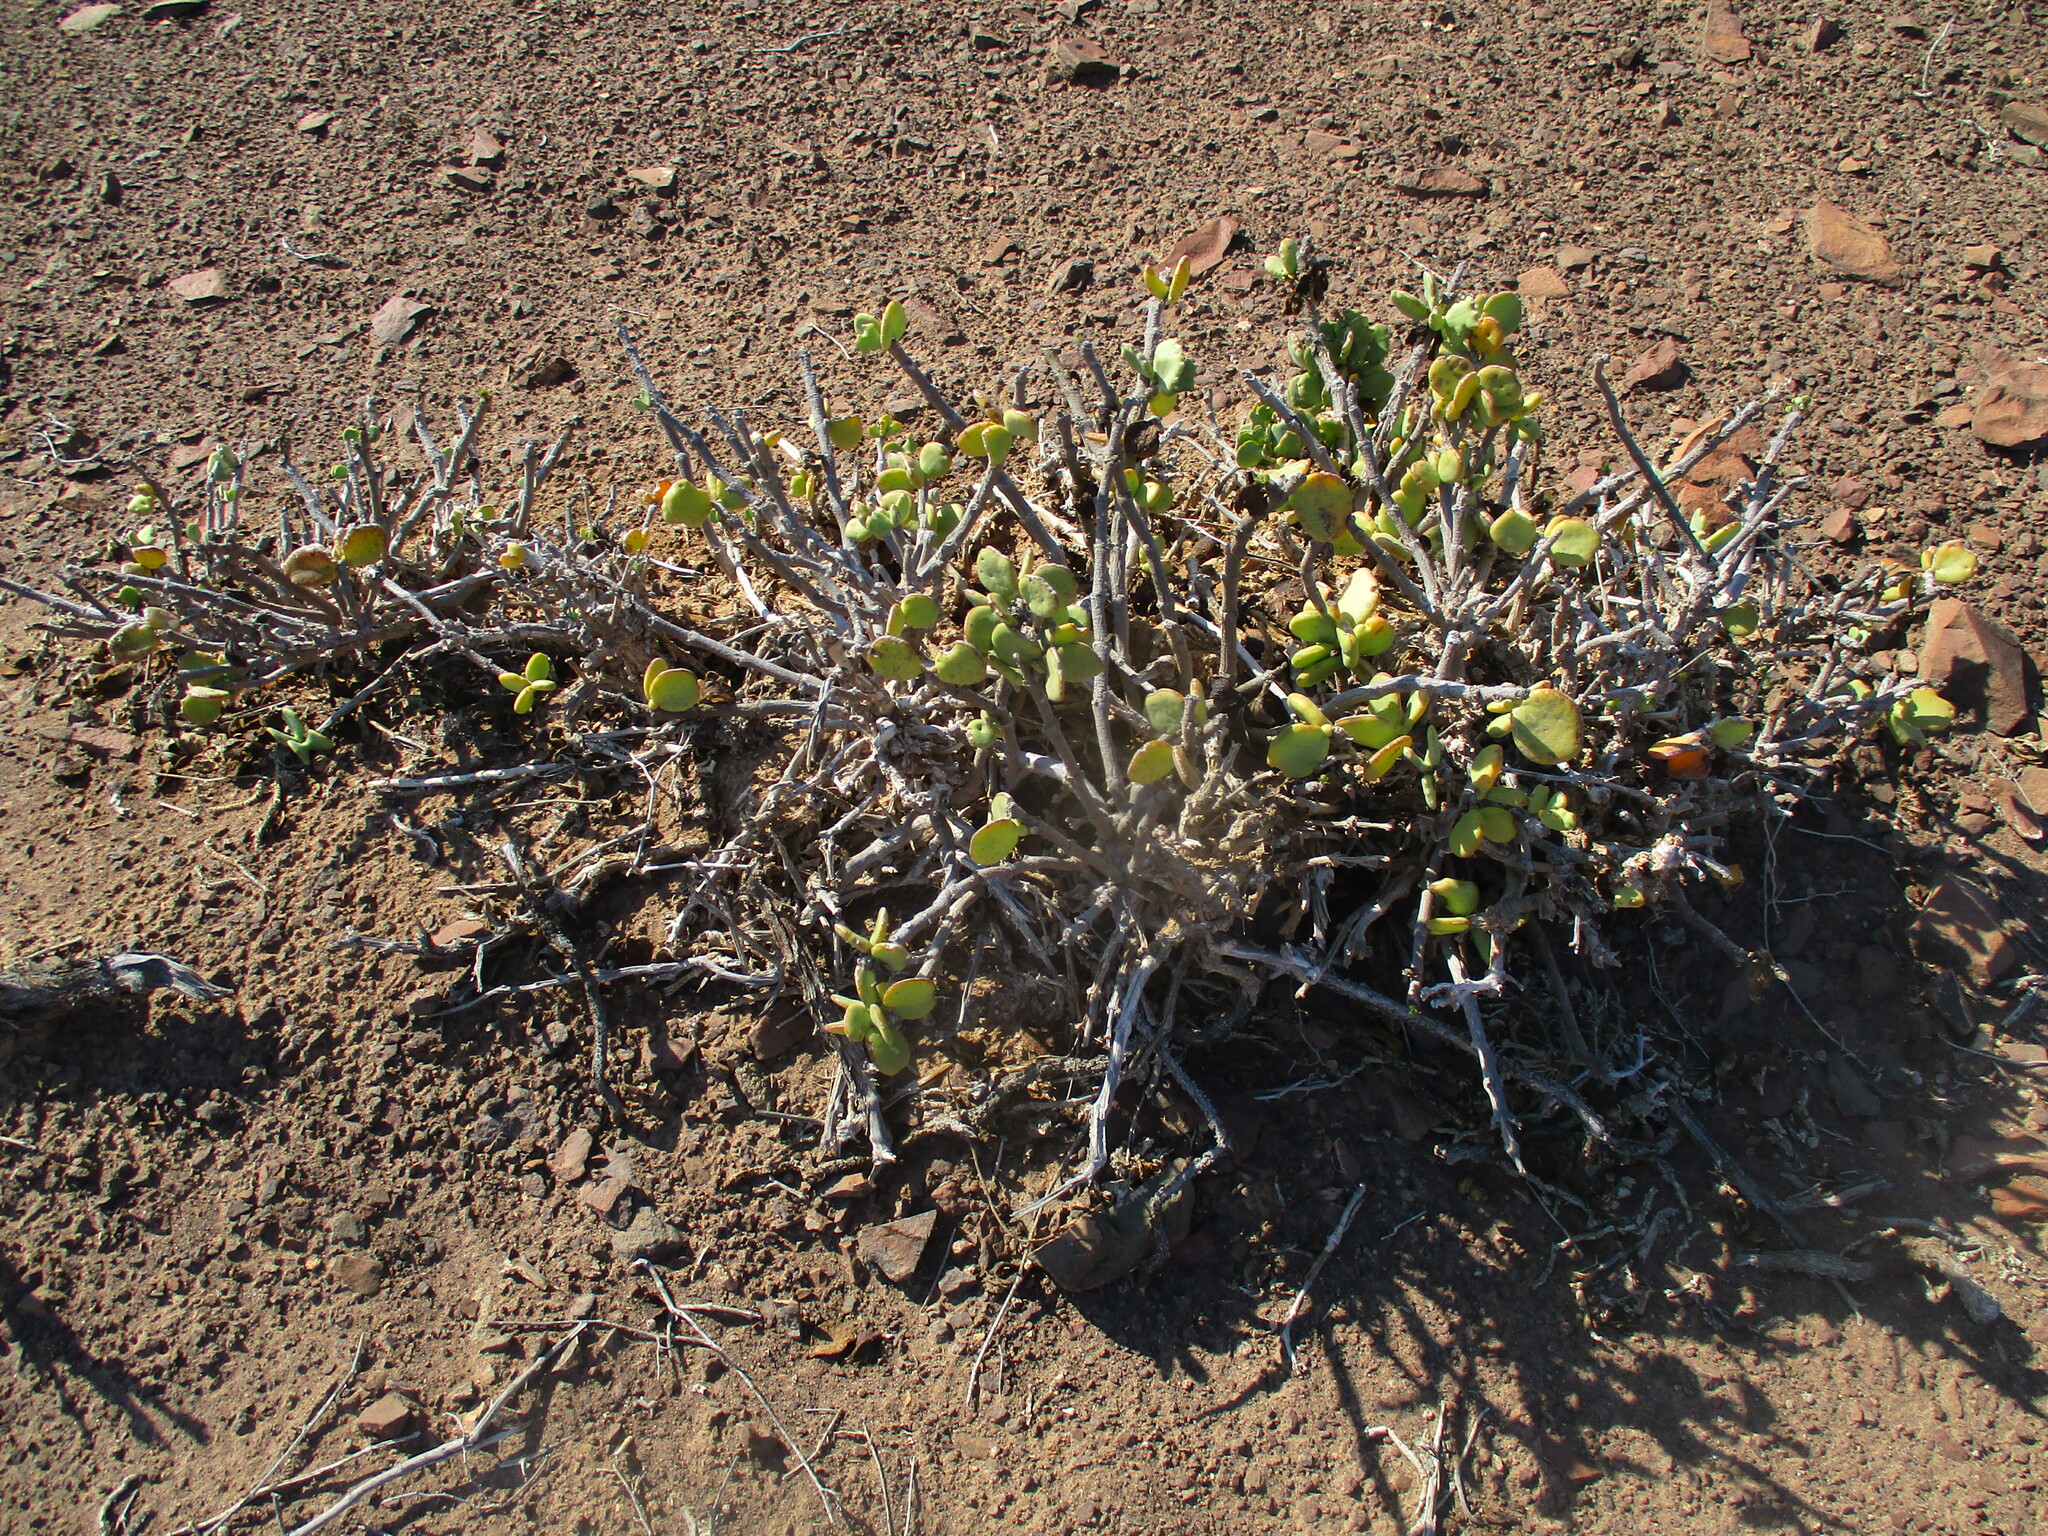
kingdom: Plantae
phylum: Tracheophyta
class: Magnoliopsida
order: Zygophyllales
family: Zygophyllaceae
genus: Tetraena
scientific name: Tetraena stapfii
